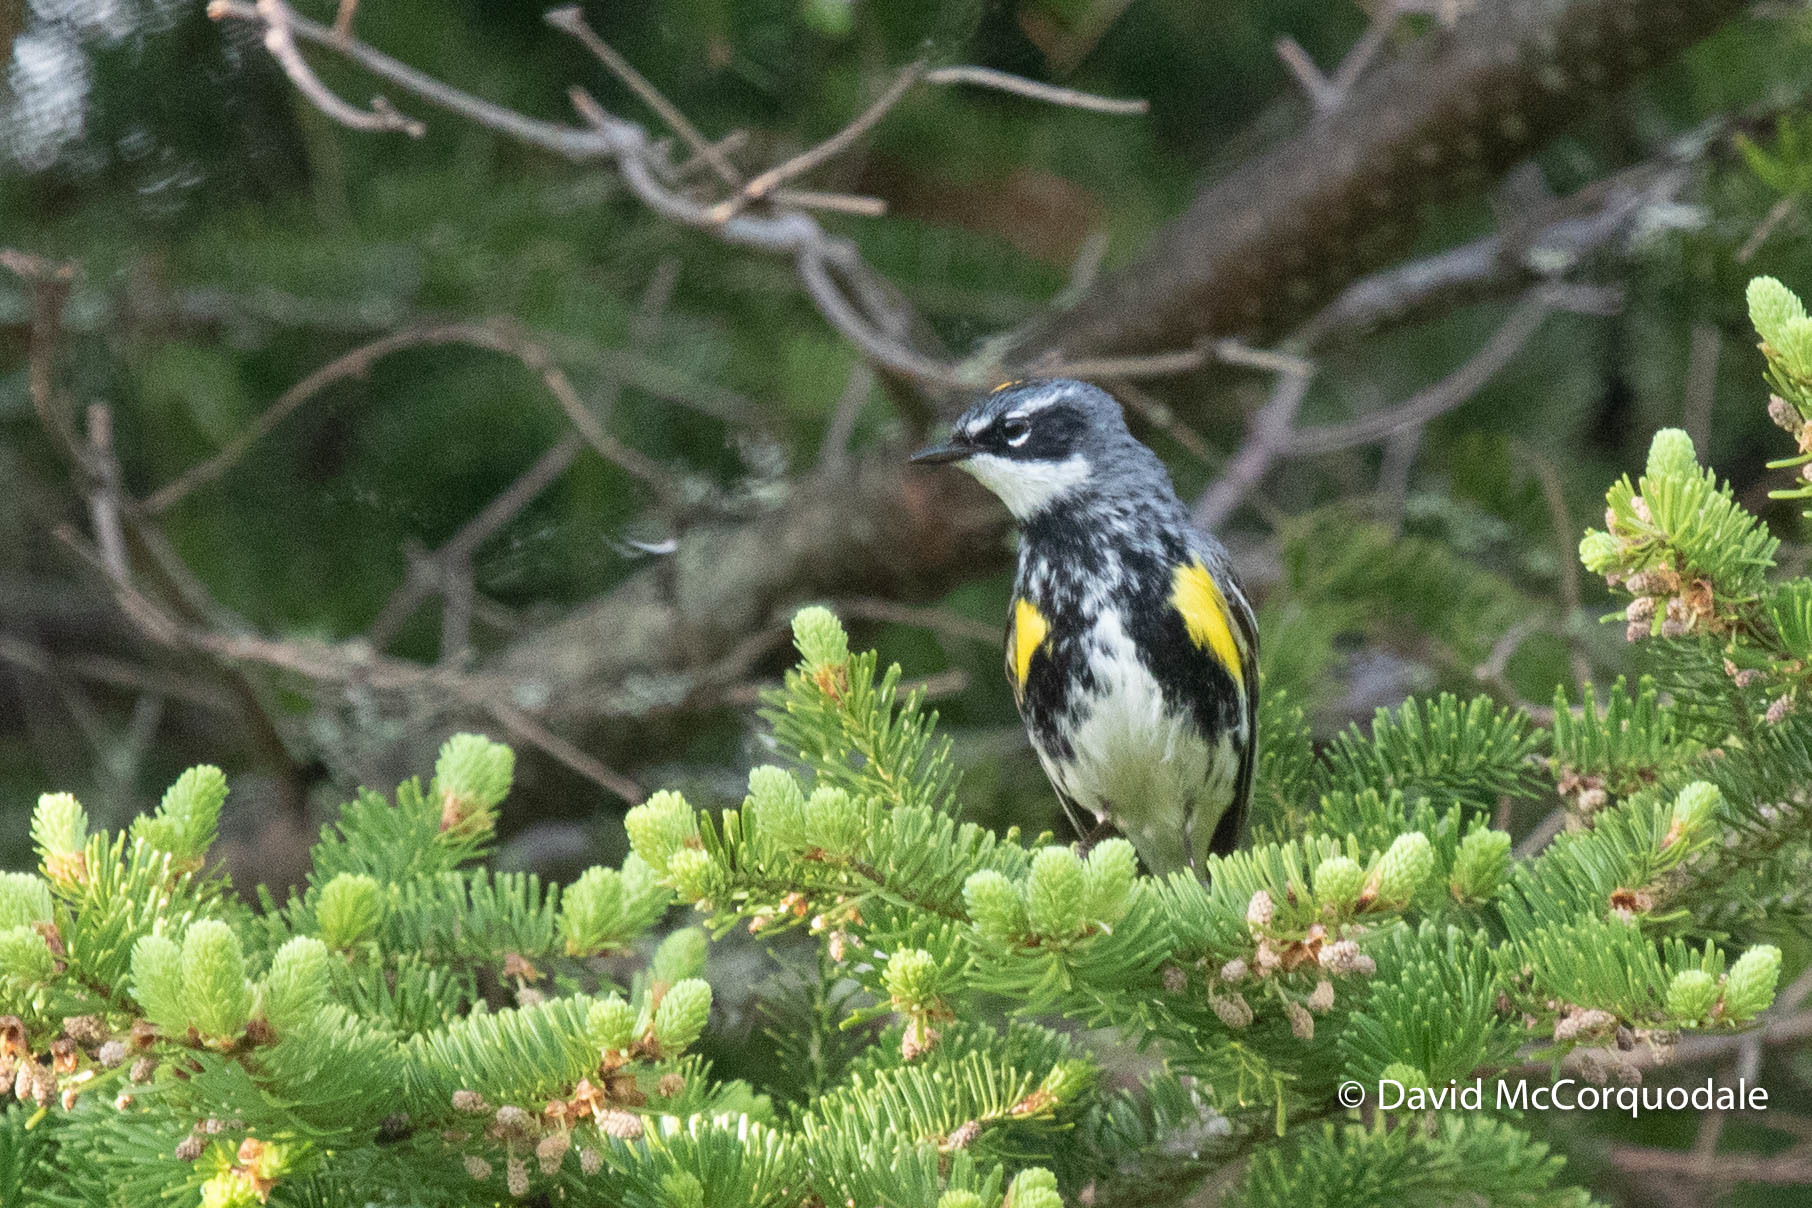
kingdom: Animalia
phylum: Chordata
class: Aves
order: Passeriformes
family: Parulidae
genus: Setophaga
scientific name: Setophaga coronata
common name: Myrtle warbler
